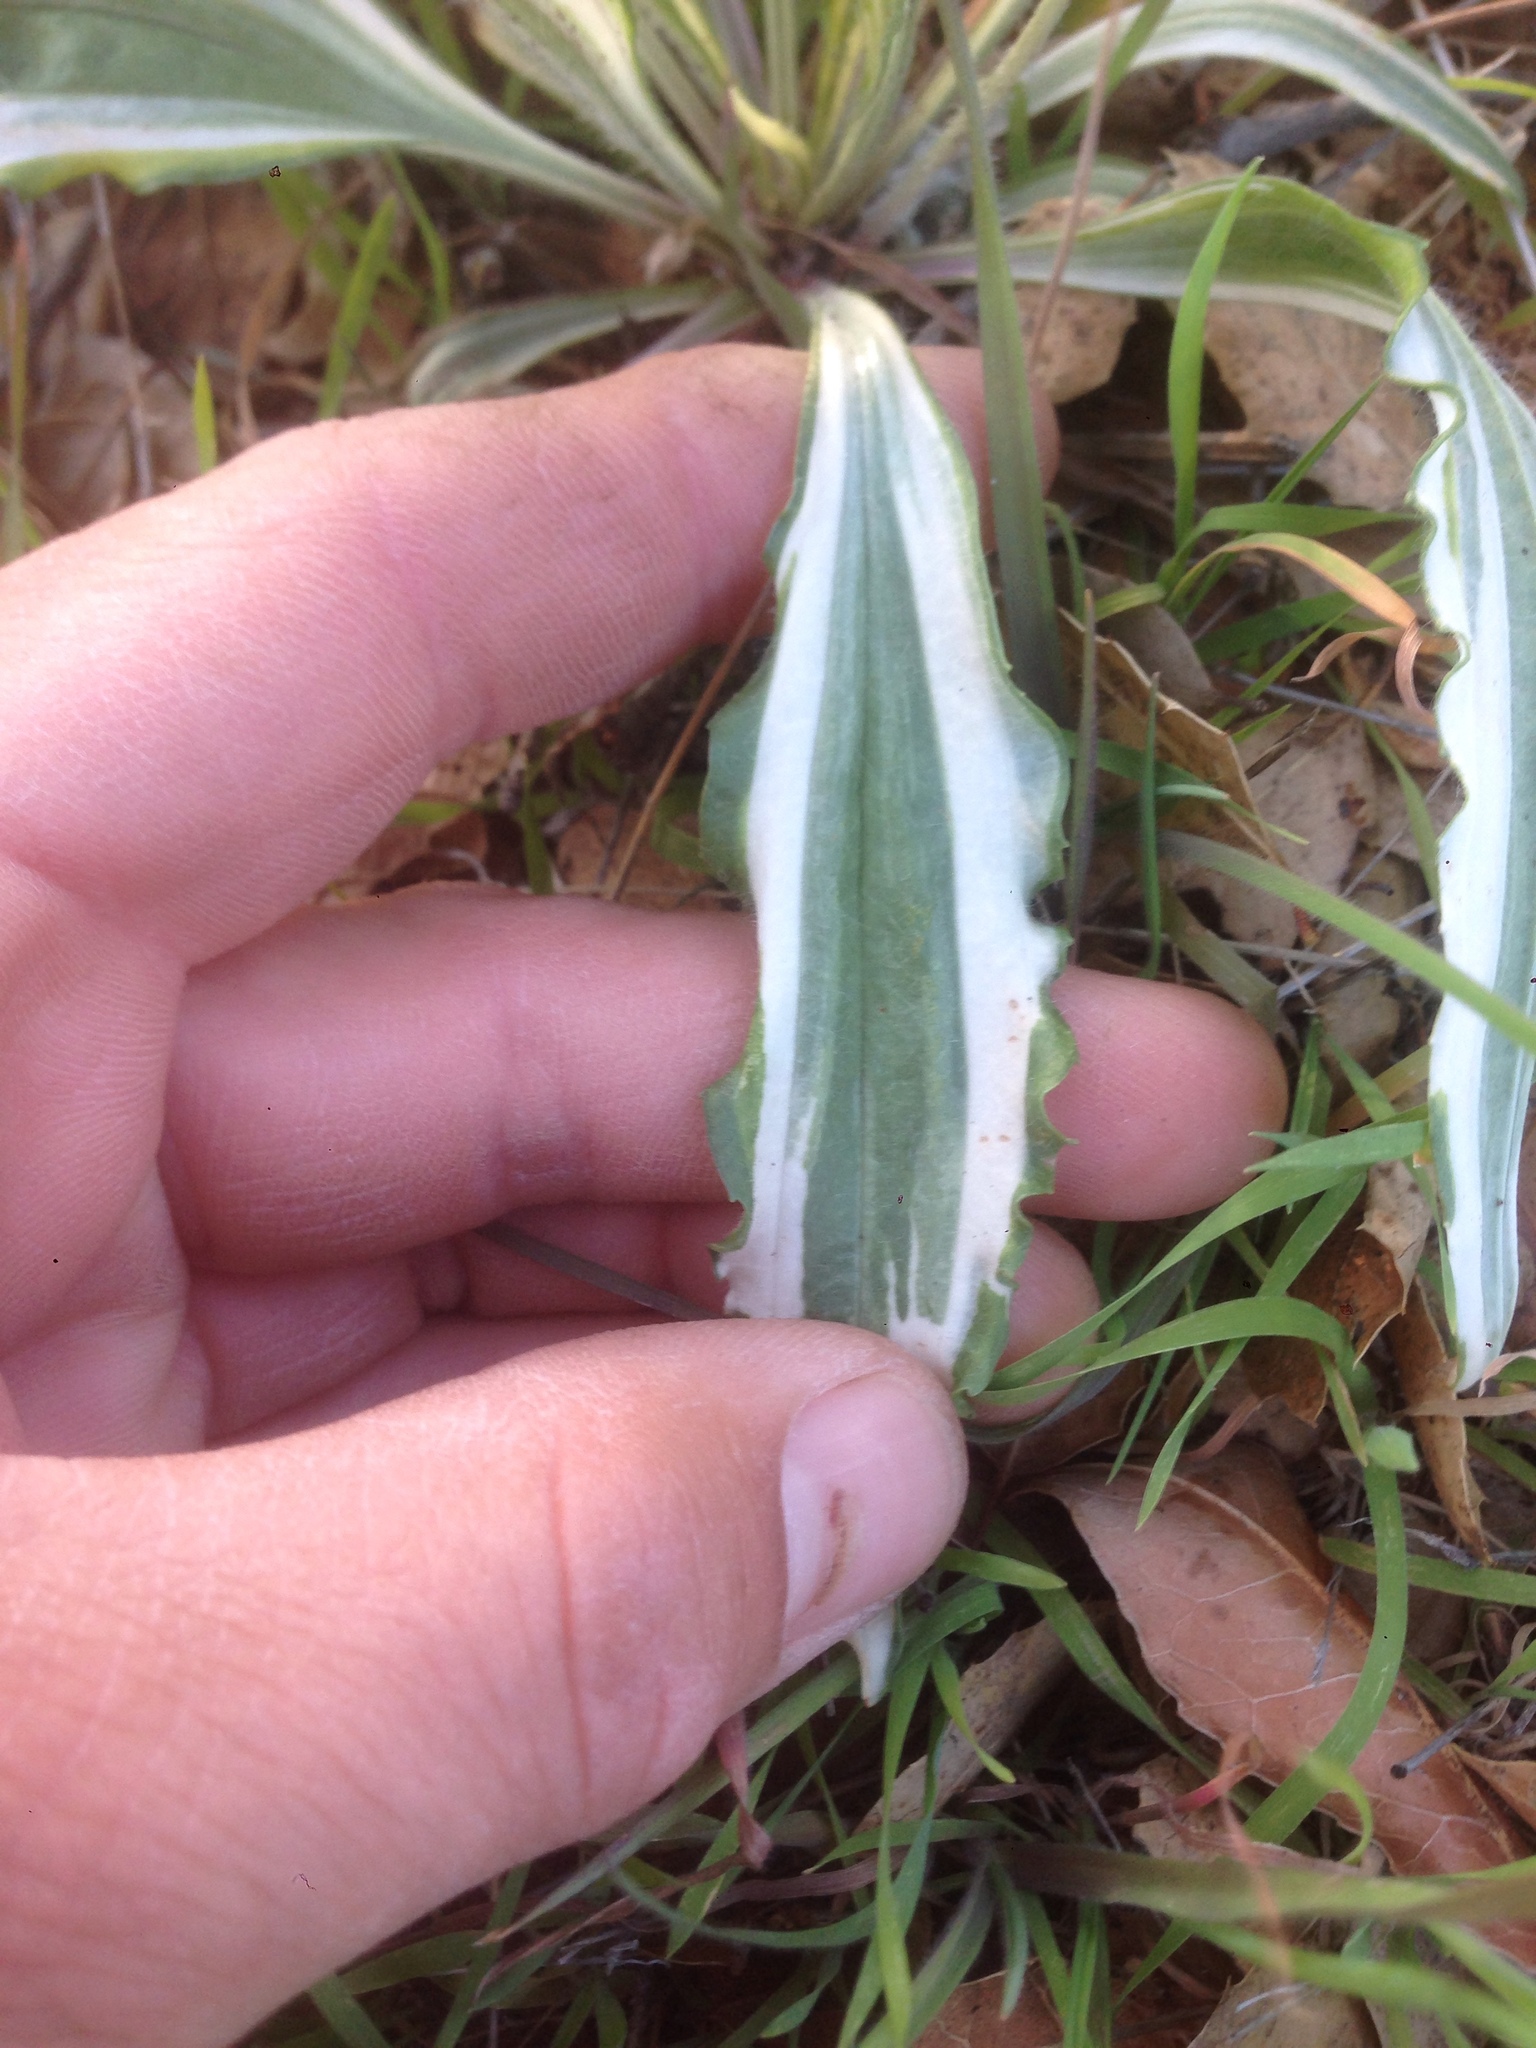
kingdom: Plantae
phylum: Tracheophyta
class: Magnoliopsida
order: Lamiales
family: Plantaginaceae
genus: Plantago
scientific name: Plantago lanceolata
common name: Ribwort plantain
